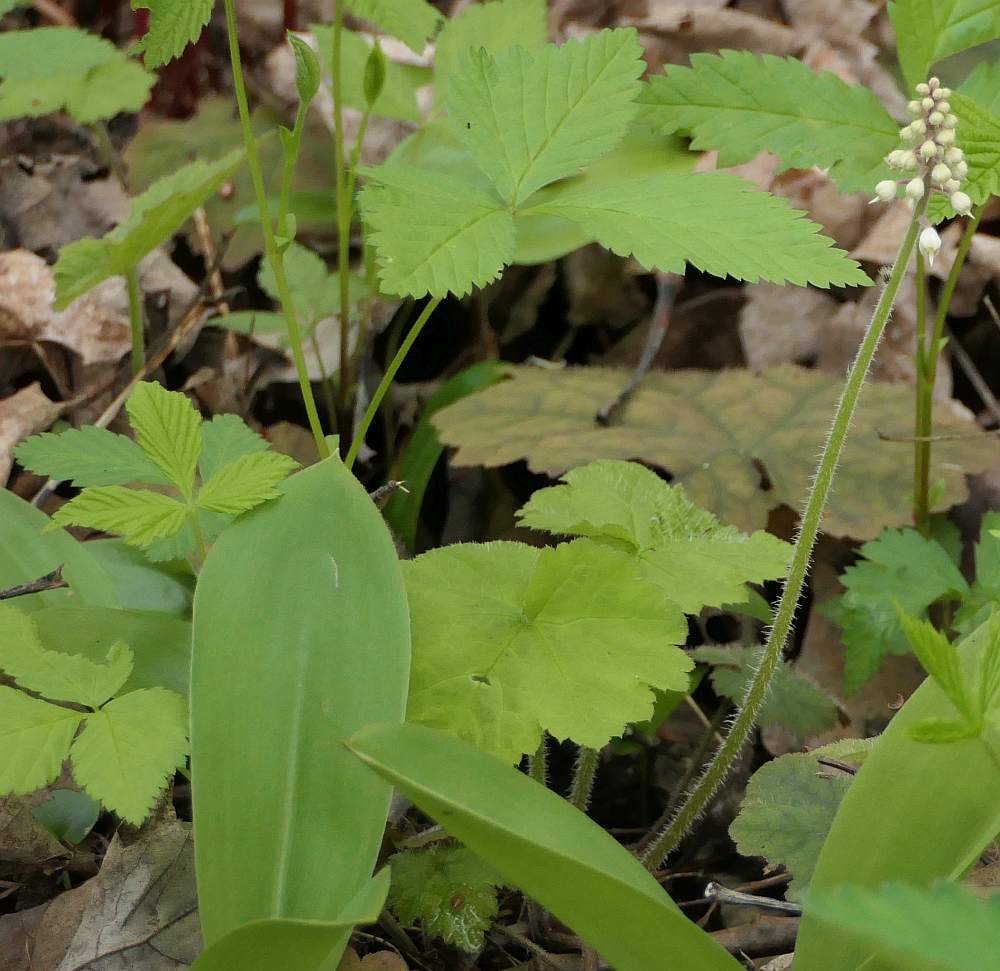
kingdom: Plantae
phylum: Tracheophyta
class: Magnoliopsida
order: Saxifragales
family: Saxifragaceae
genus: Tiarella
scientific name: Tiarella stolonifera
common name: Stoloniferous foamflower
